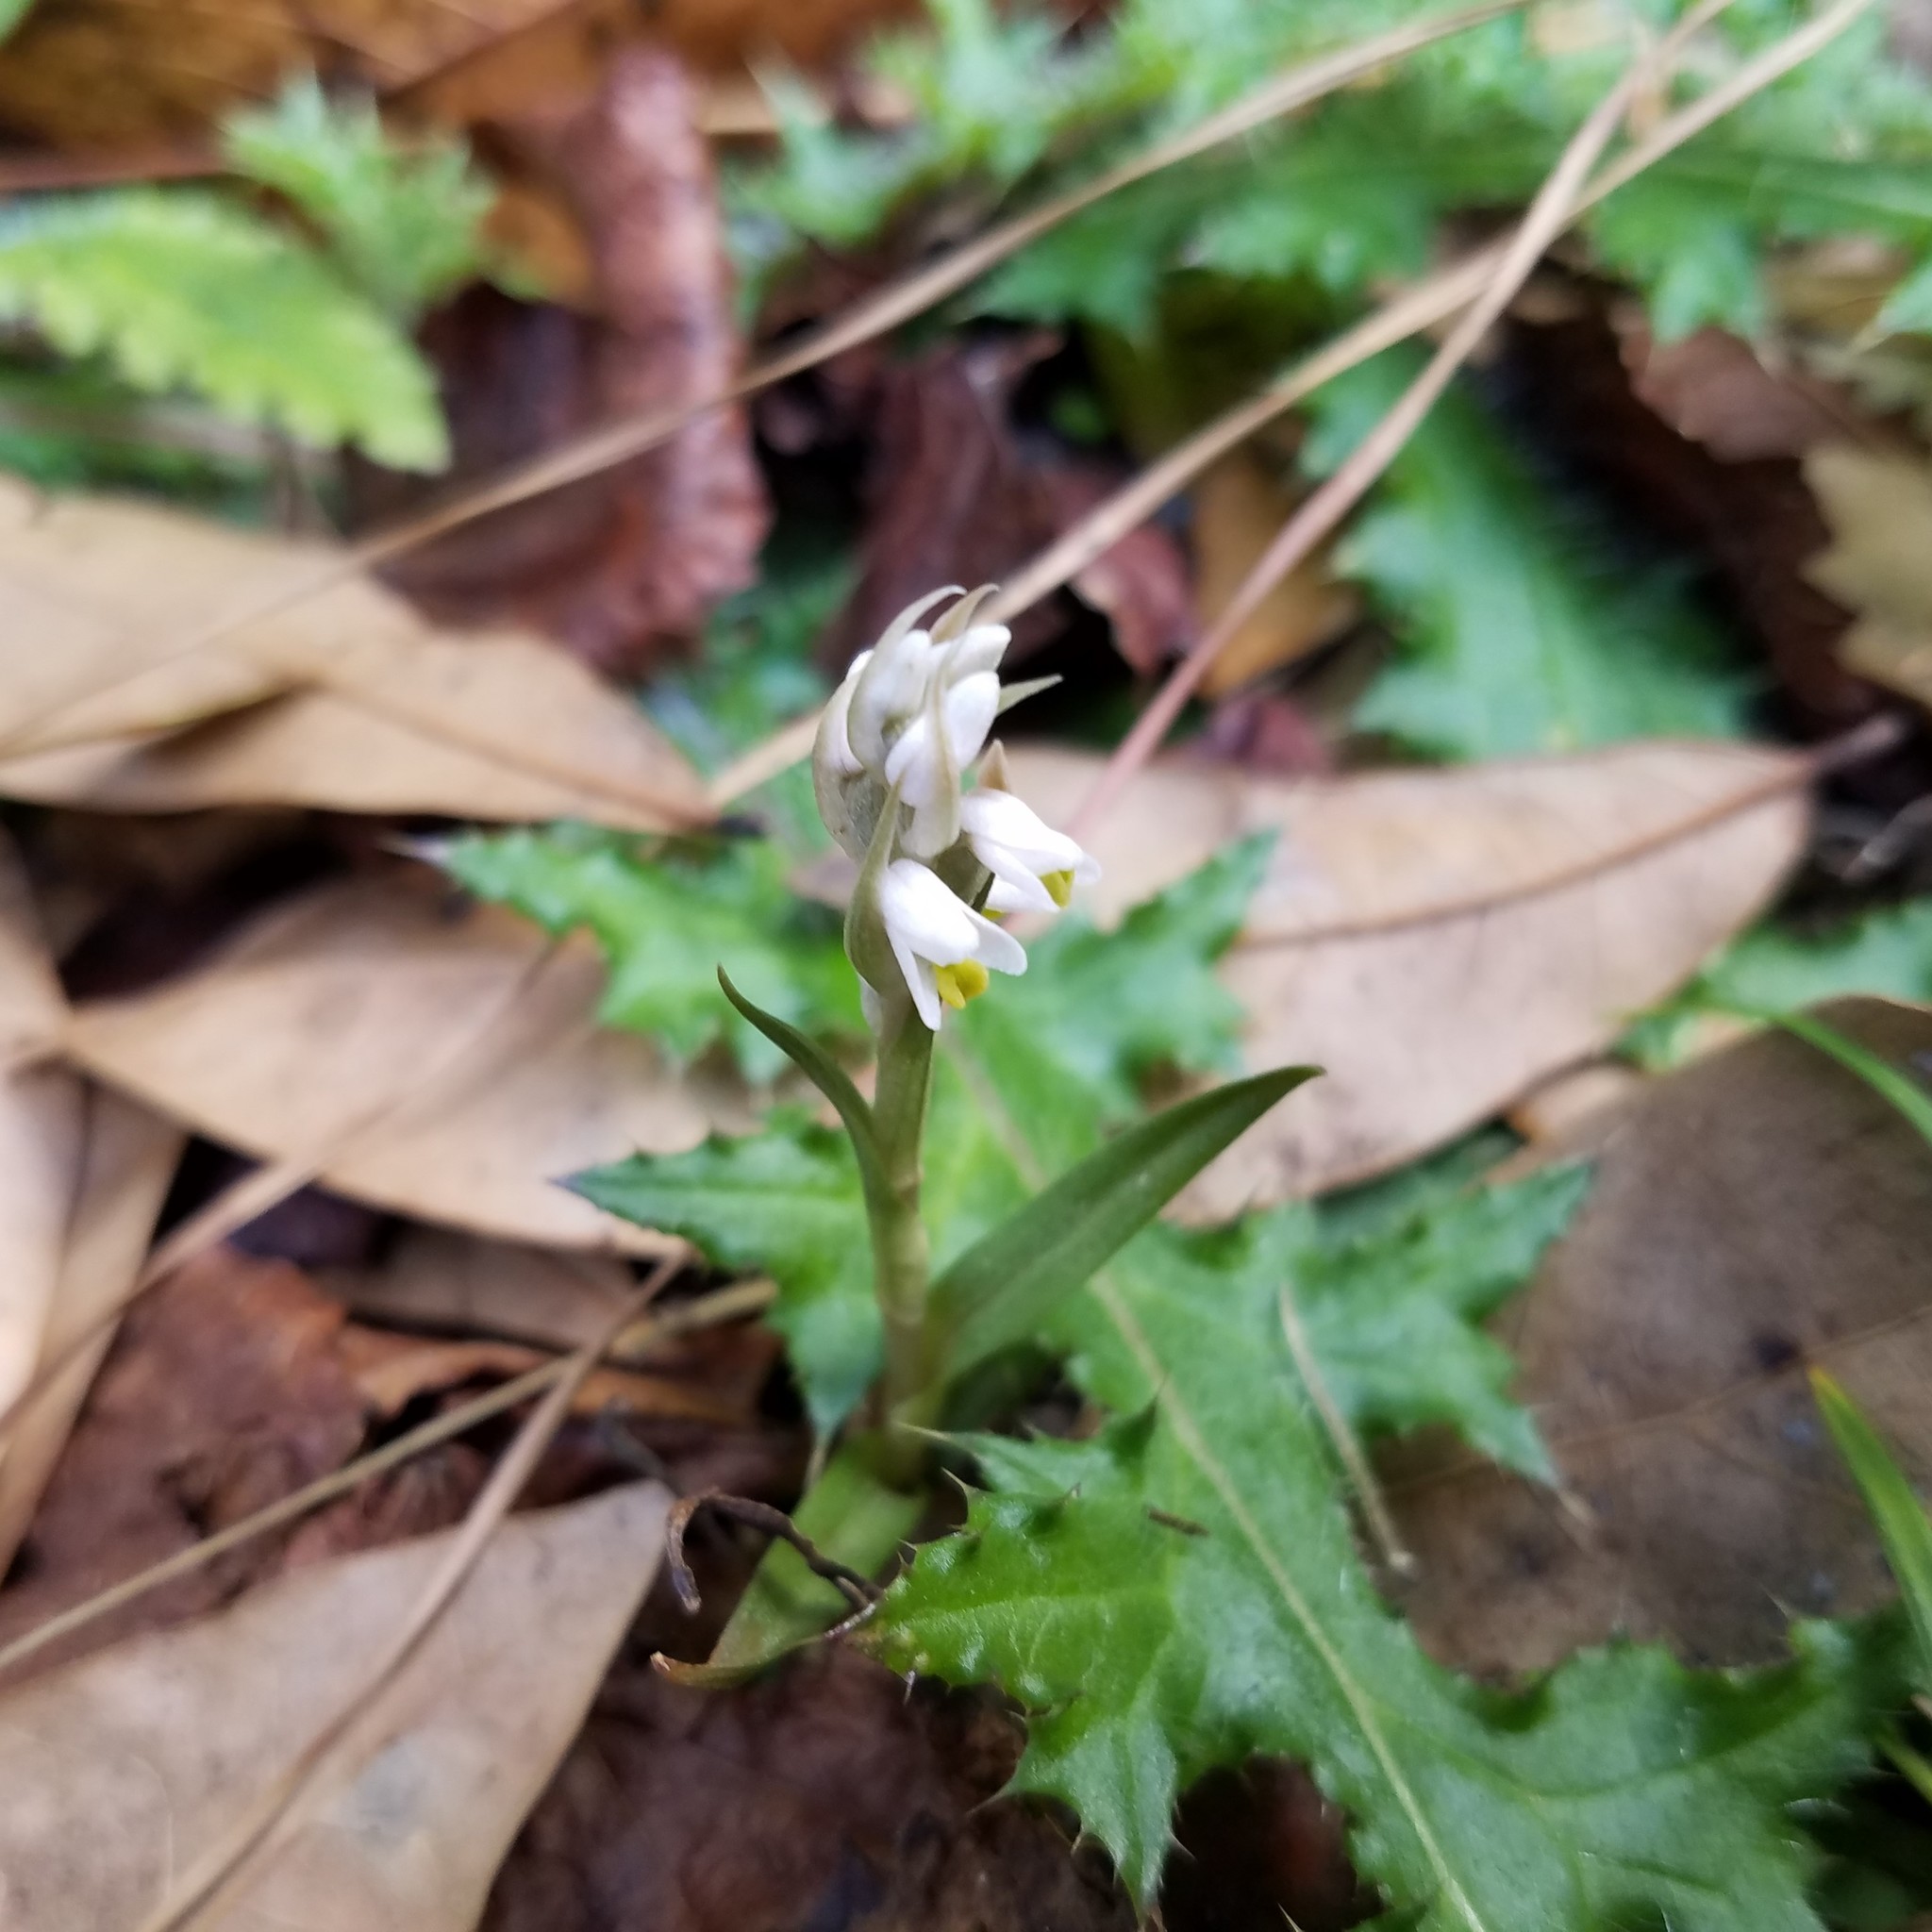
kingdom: Plantae
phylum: Tracheophyta
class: Liliopsida
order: Asparagales
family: Orchidaceae
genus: Zeuxine
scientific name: Zeuxine strateumatica
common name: Soldier's orchid
